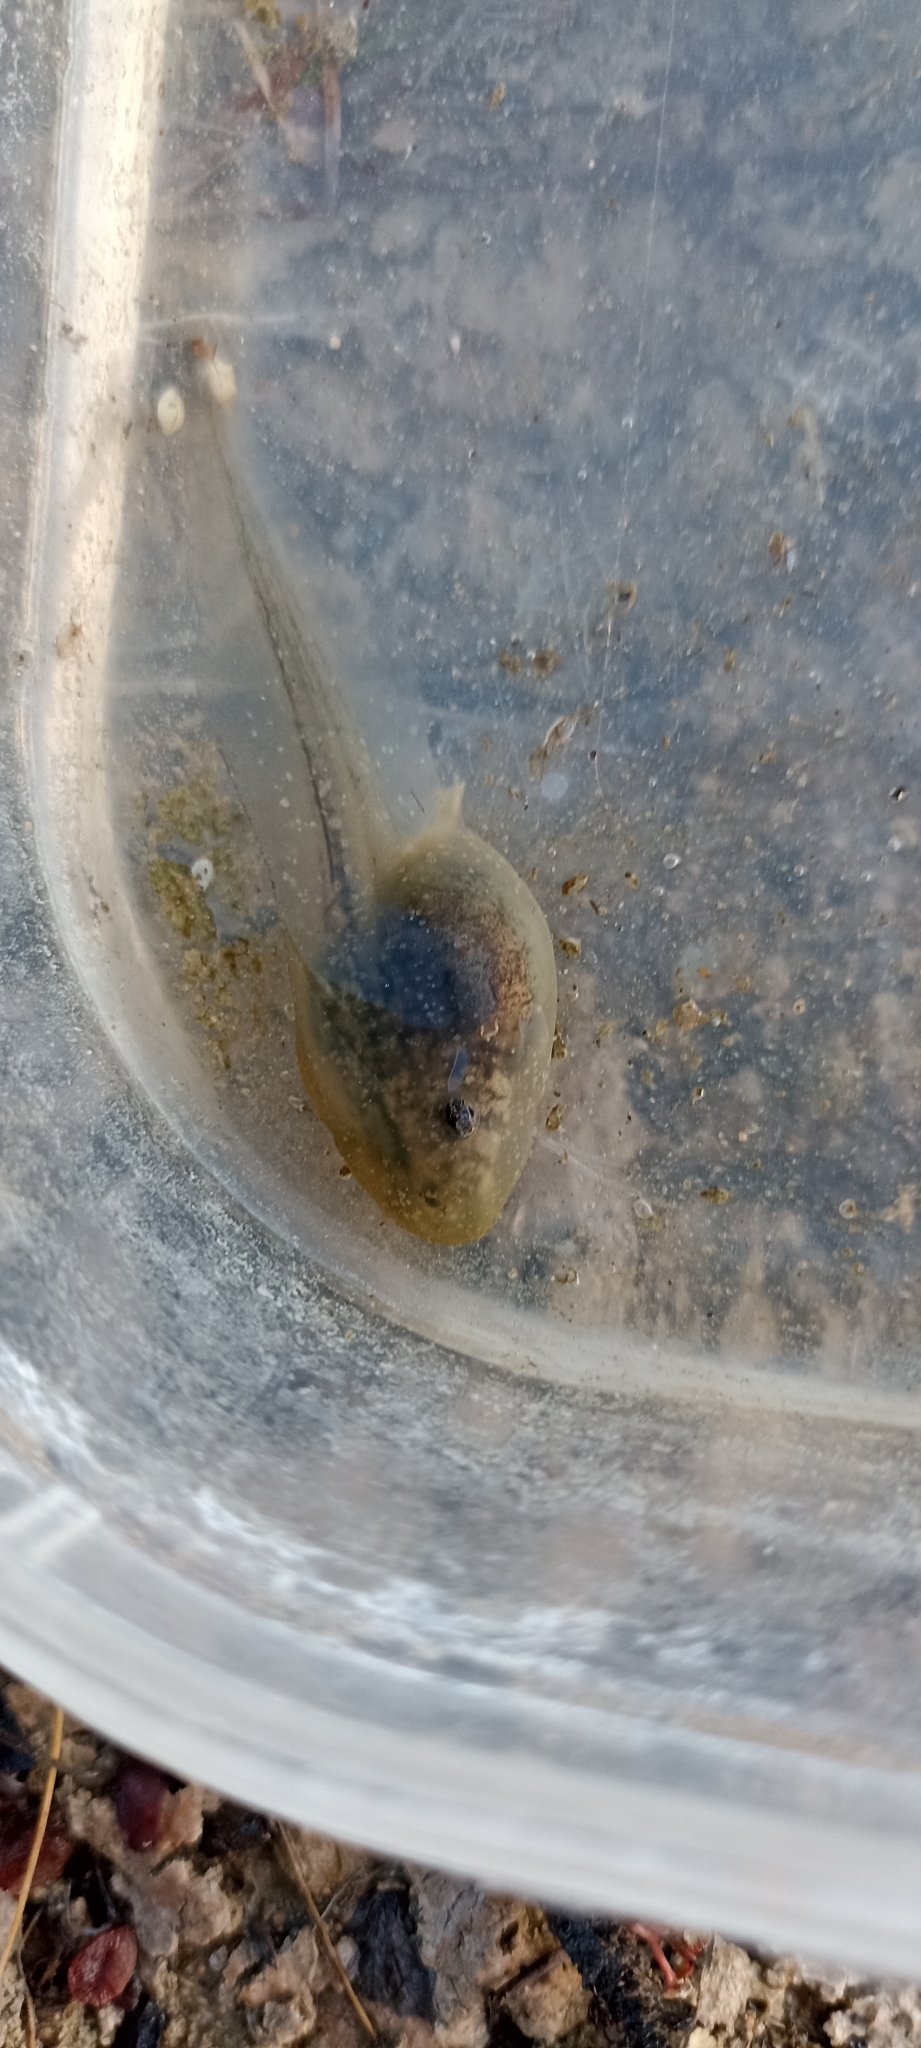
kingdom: Animalia
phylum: Chordata
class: Amphibia
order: Anura
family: Pelobatidae
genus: Pelobates
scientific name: Pelobates cultripes
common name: Western spadefoot
